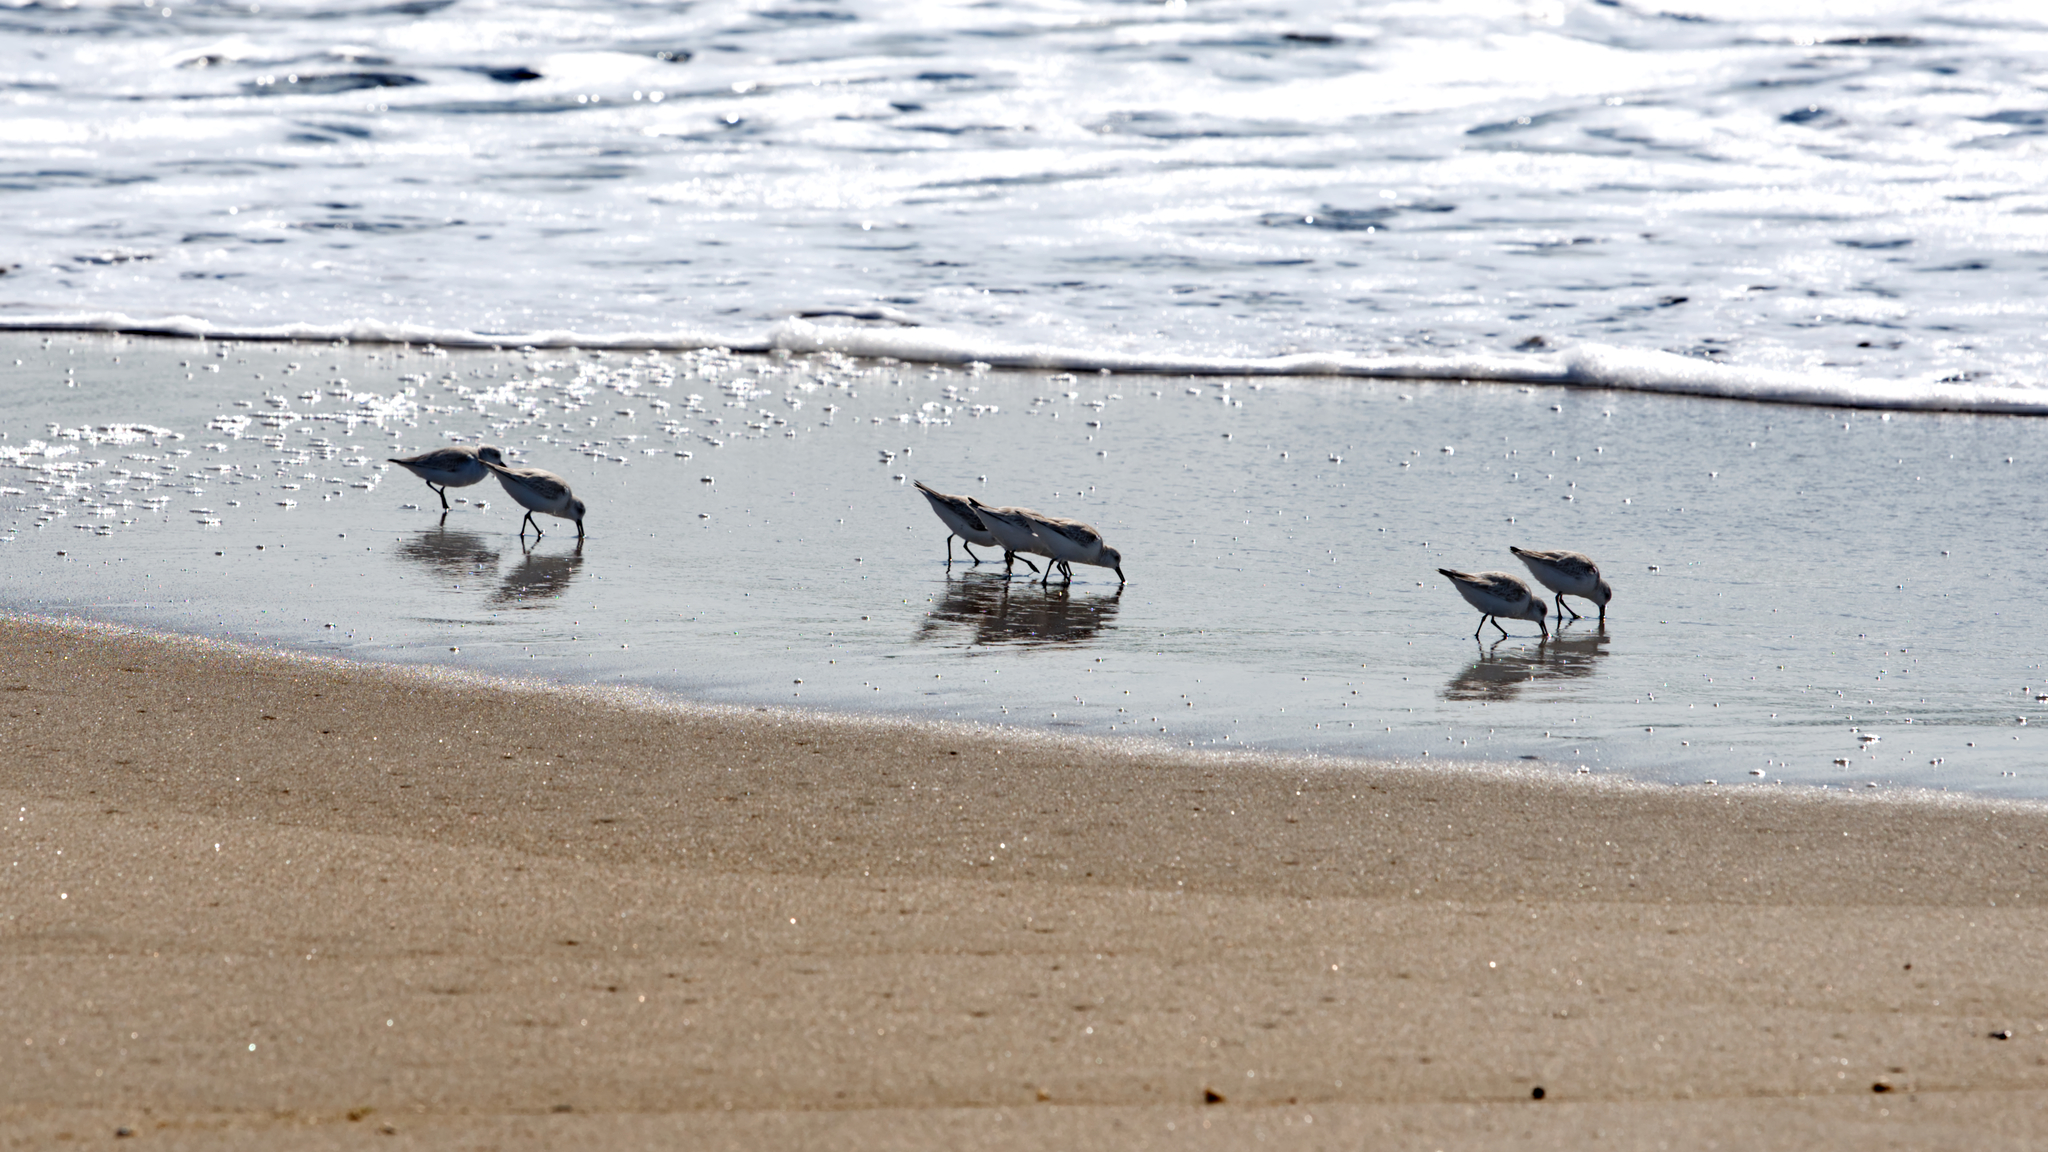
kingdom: Animalia
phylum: Chordata
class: Aves
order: Charadriiformes
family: Scolopacidae
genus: Calidris
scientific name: Calidris alba
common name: Sanderling
